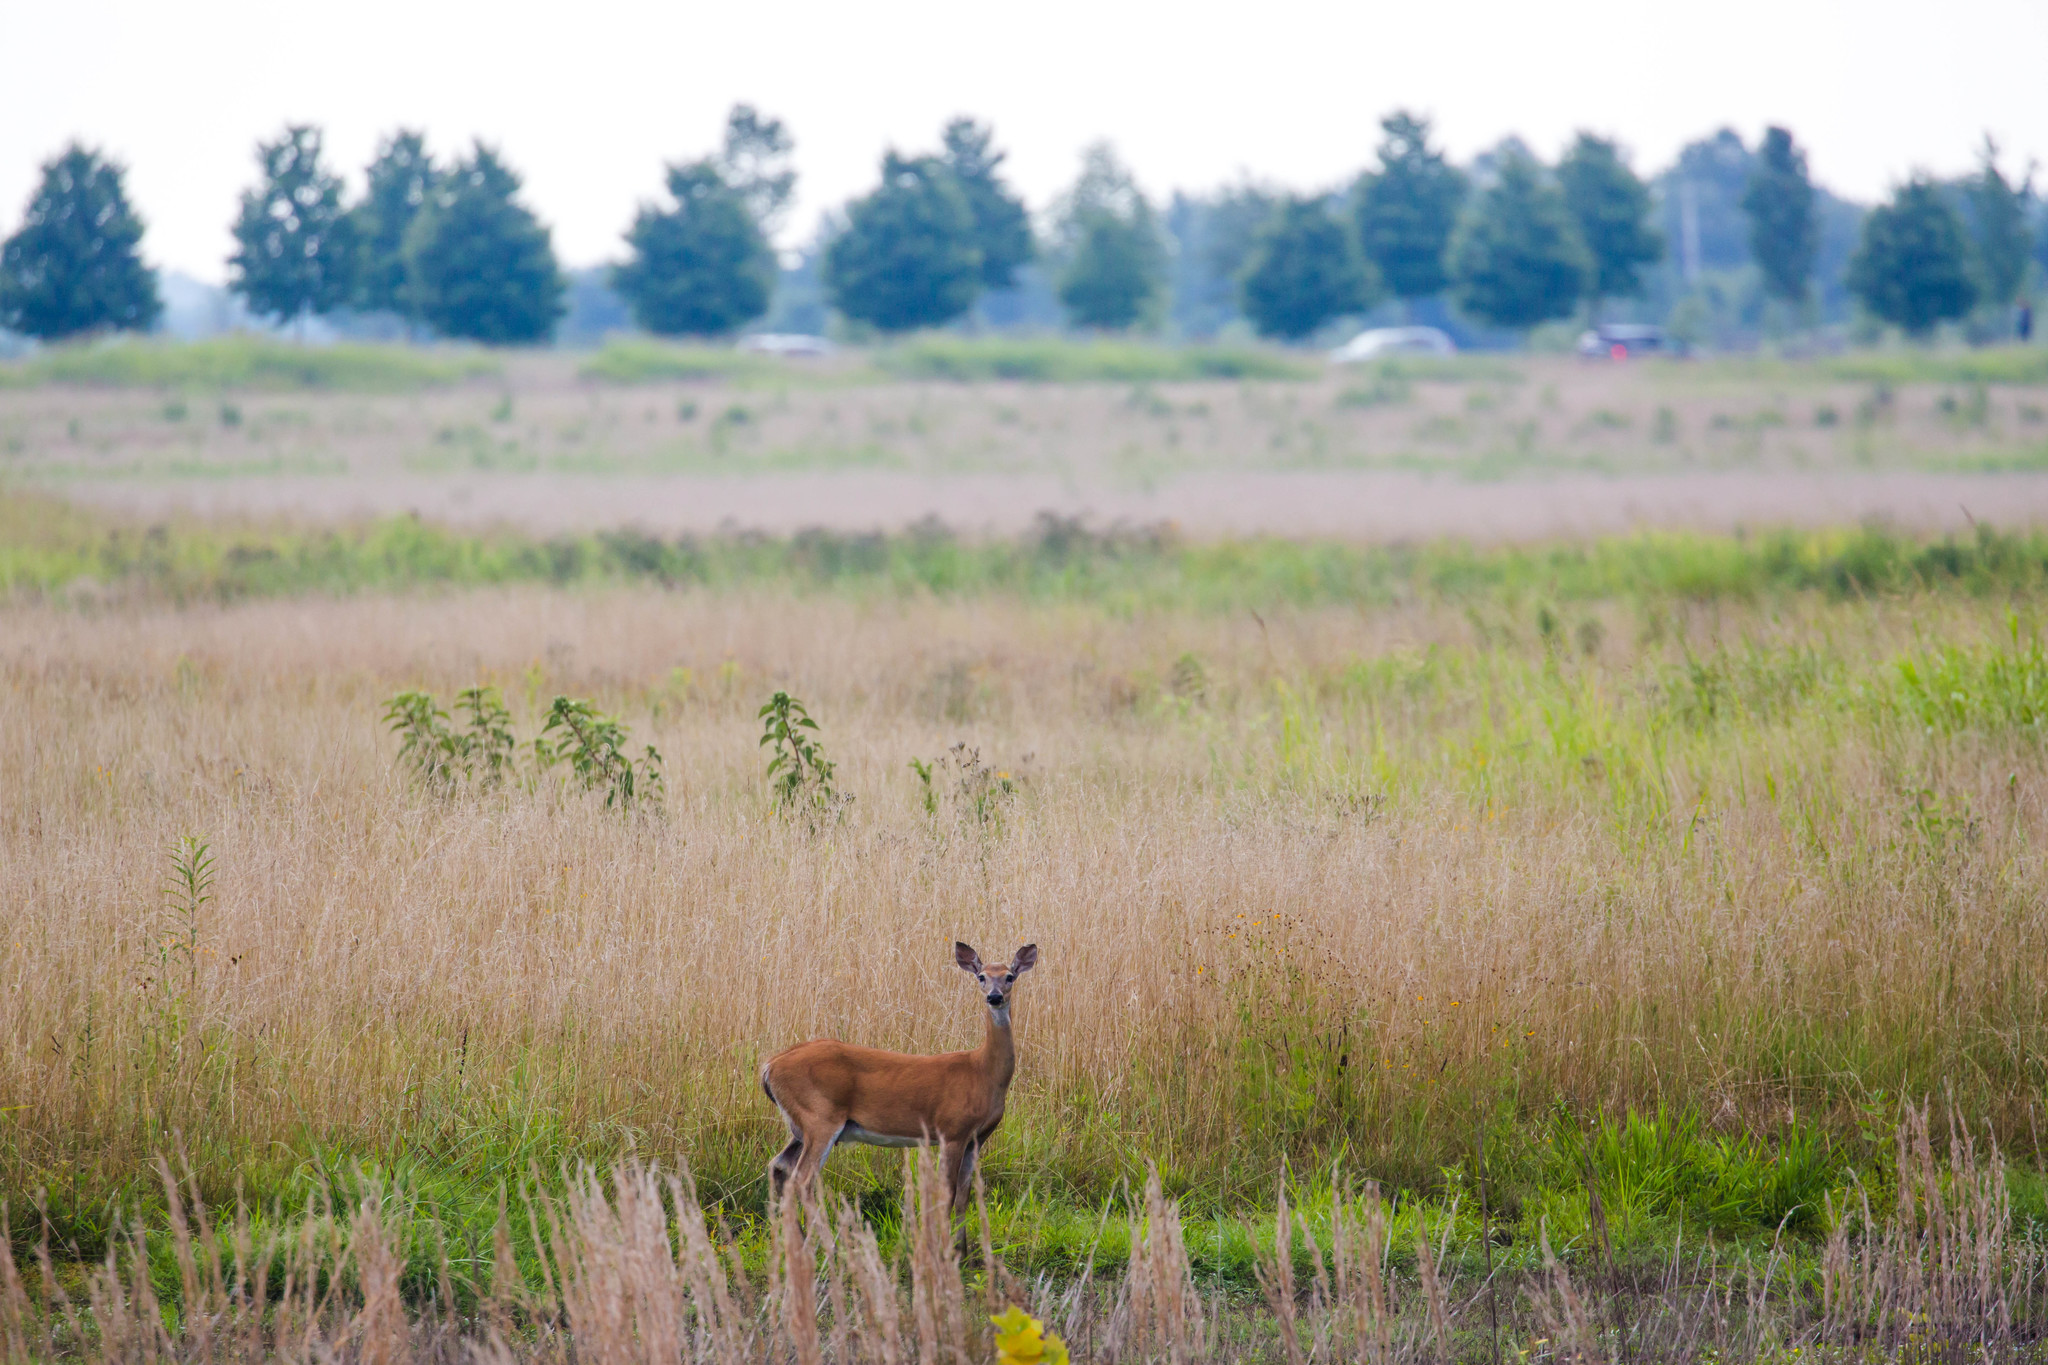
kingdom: Animalia
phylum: Chordata
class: Mammalia
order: Artiodactyla
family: Cervidae
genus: Odocoileus
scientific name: Odocoileus virginianus
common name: White-tailed deer
